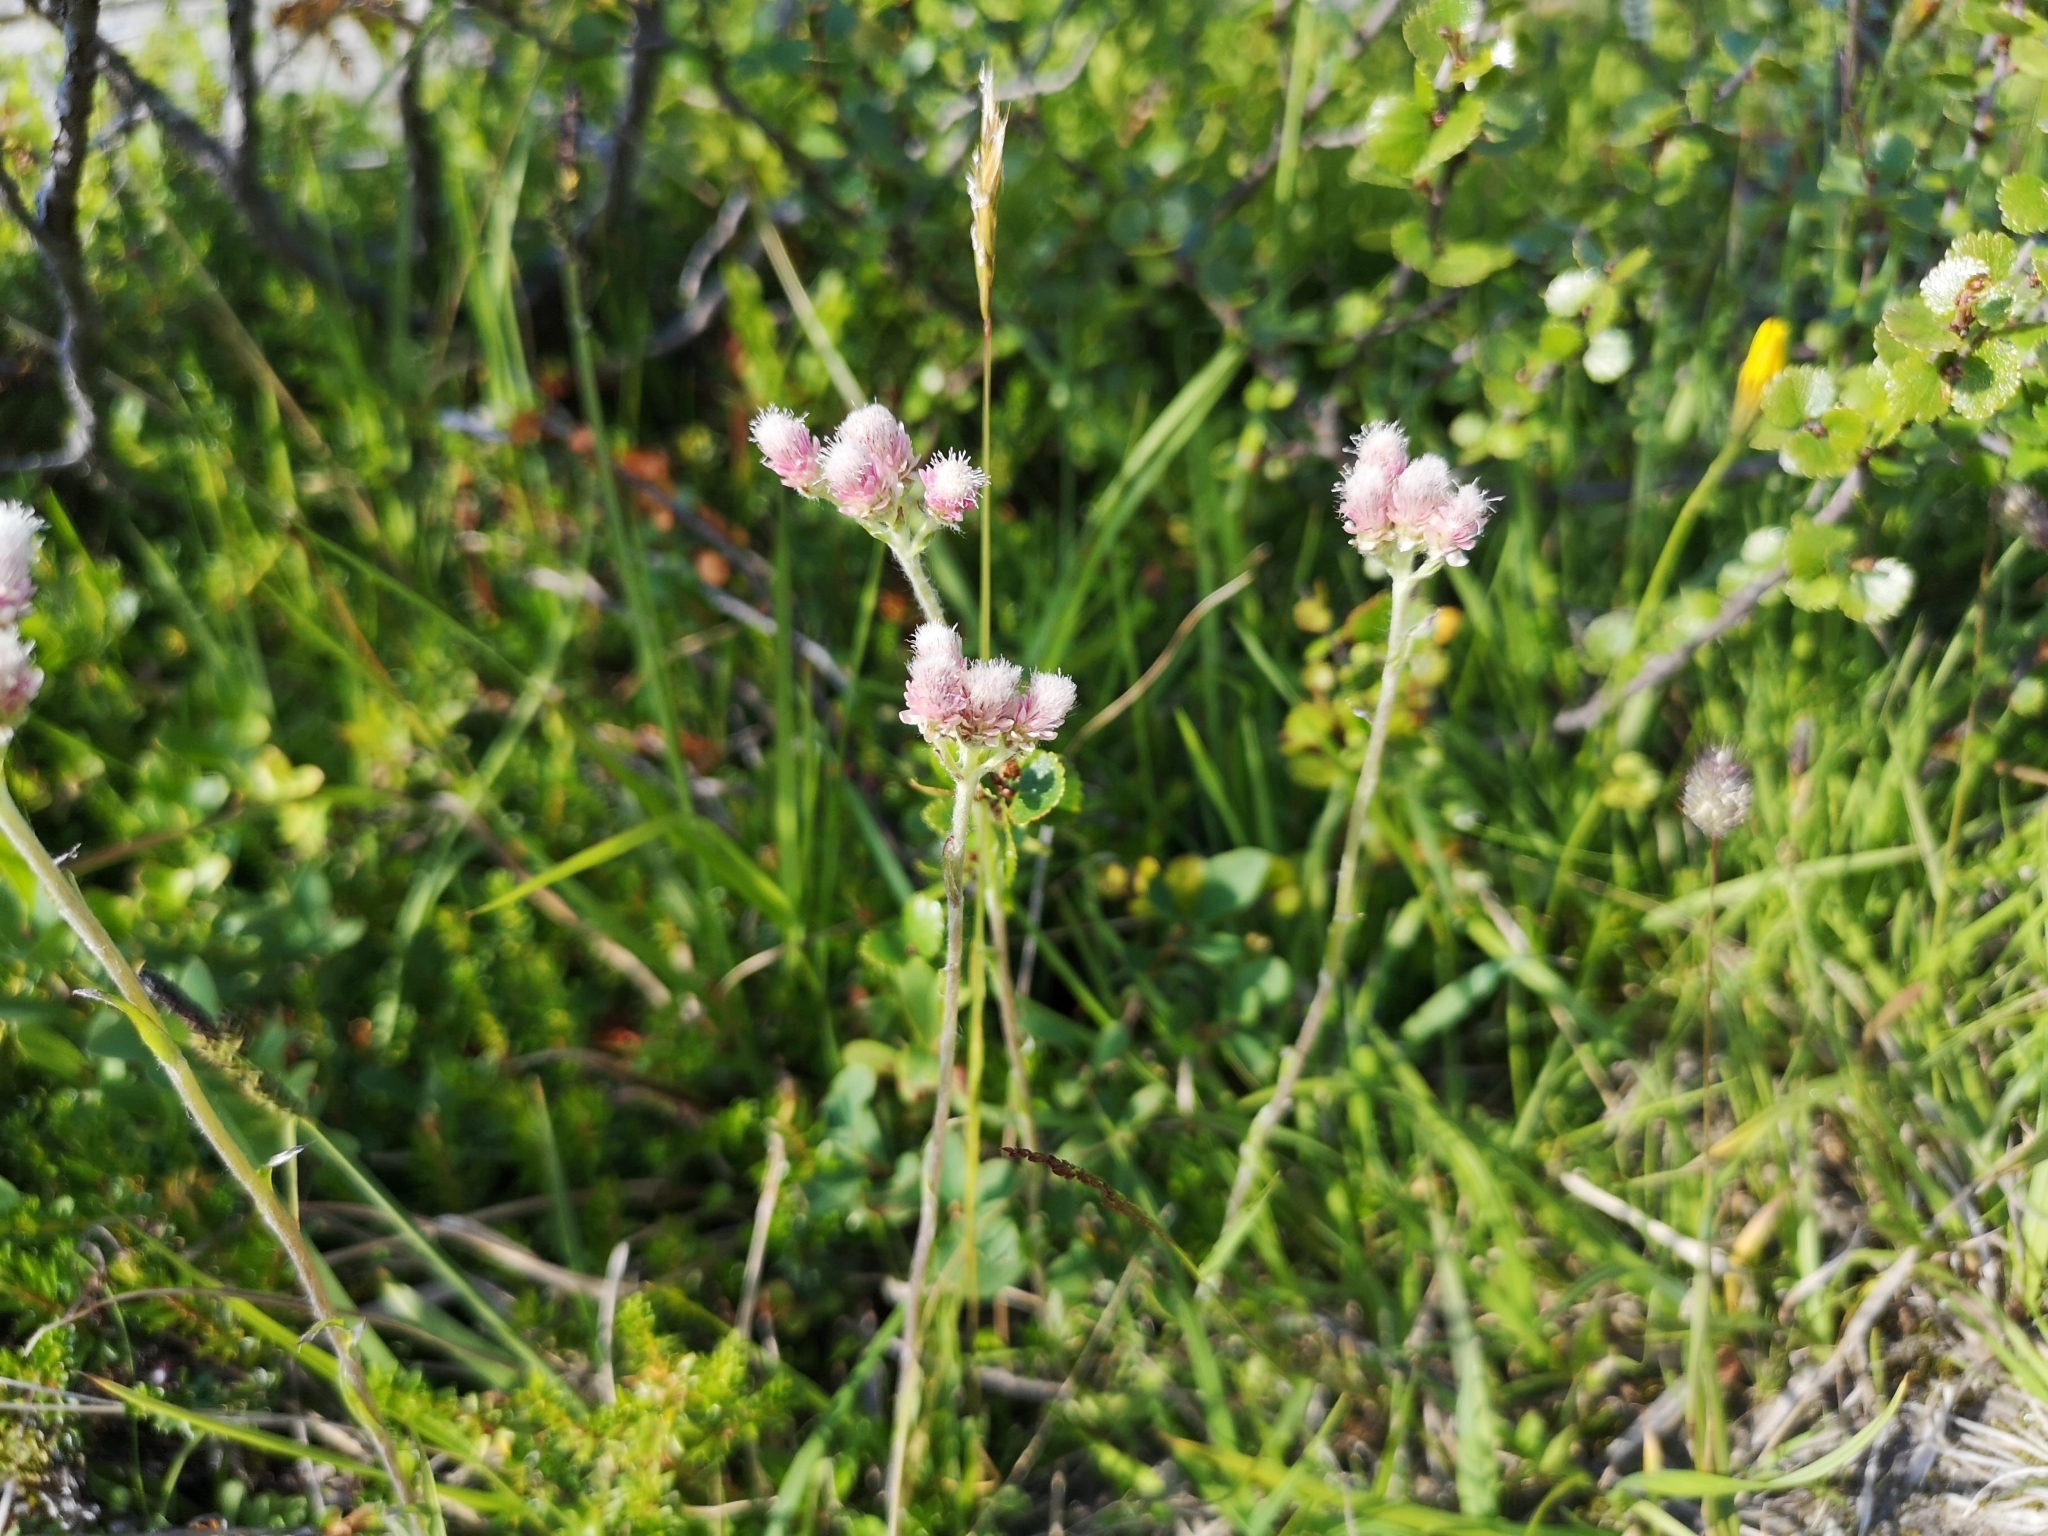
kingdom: Plantae
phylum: Tracheophyta
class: Magnoliopsida
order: Asterales
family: Asteraceae
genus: Antennaria
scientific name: Antennaria dioica
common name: Mountain everlasting
